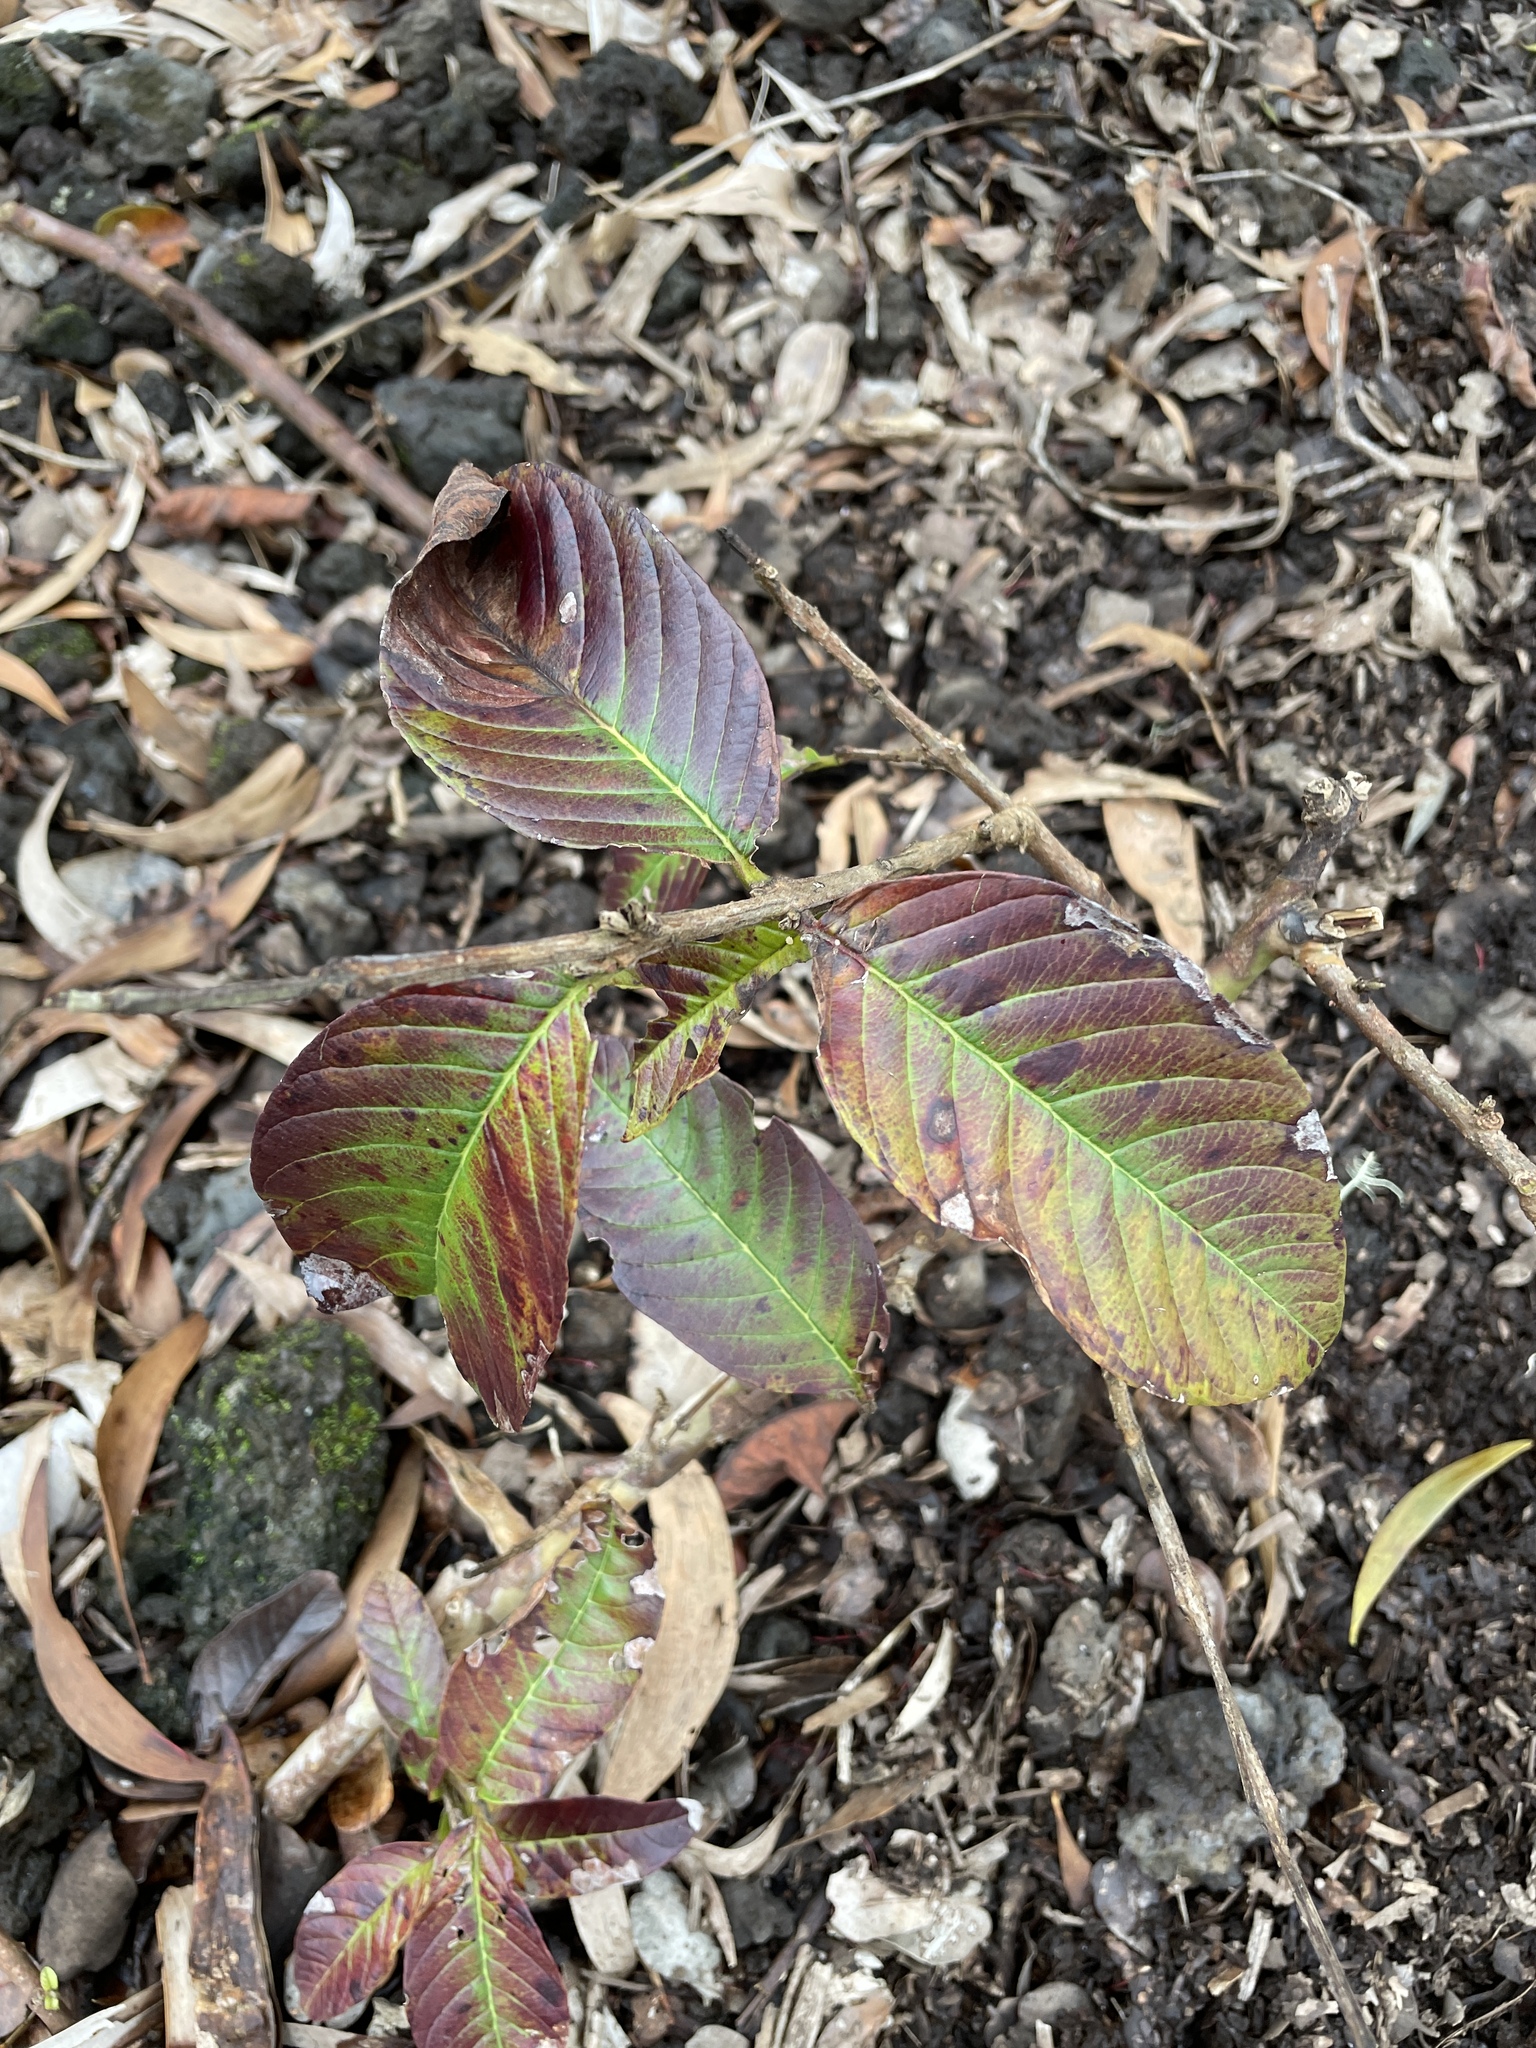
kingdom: Plantae
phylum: Tracheophyta
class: Magnoliopsida
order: Myrtales
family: Myrtaceae
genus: Psidium
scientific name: Psidium guajava
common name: Guava
